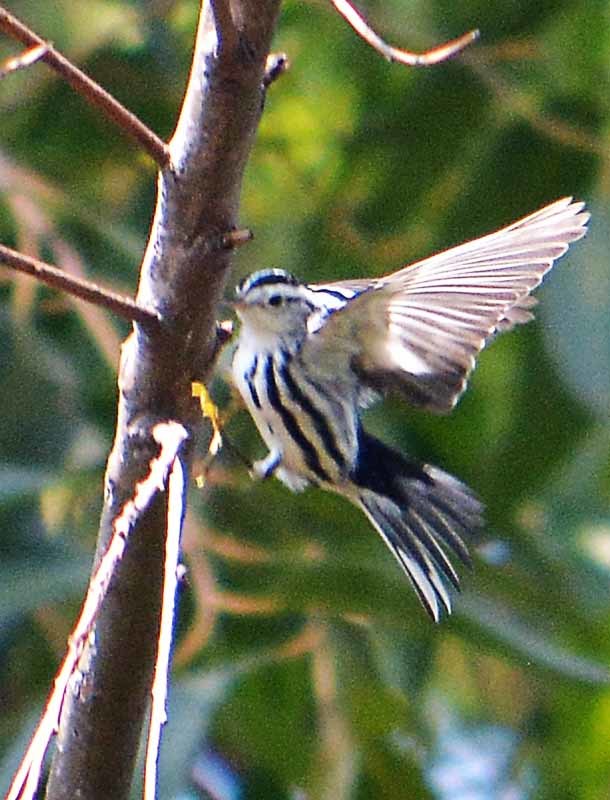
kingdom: Animalia
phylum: Chordata
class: Aves
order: Passeriformes
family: Parulidae
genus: Mniotilta
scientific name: Mniotilta varia
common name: Black-and-white warbler
